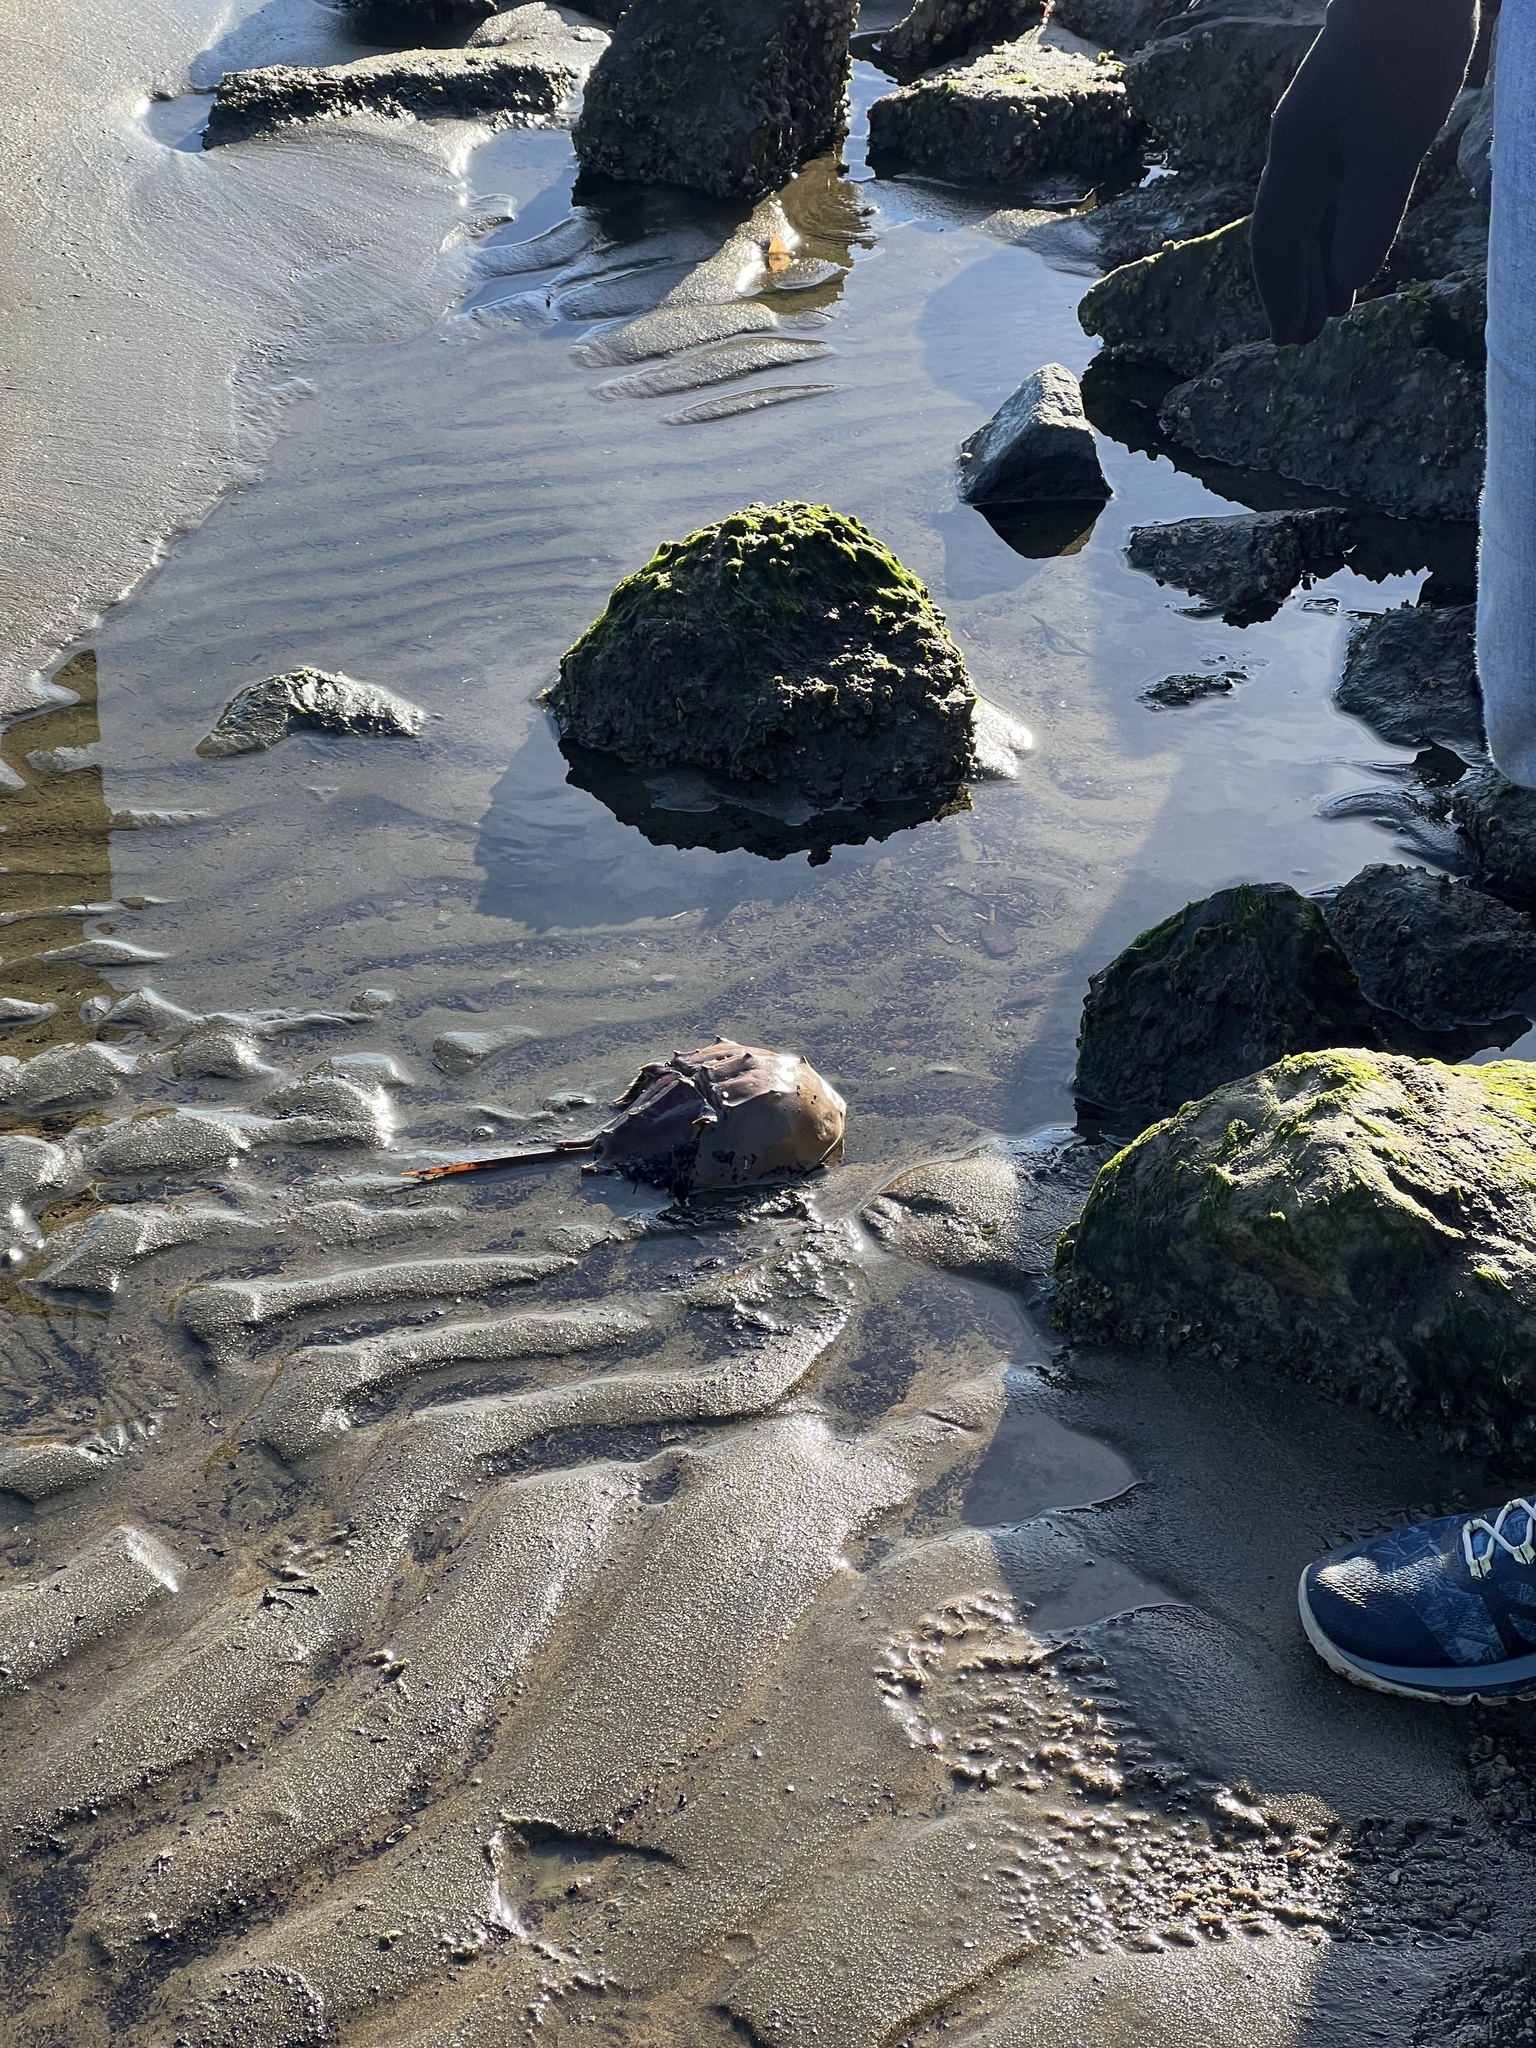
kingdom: Animalia
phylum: Arthropoda
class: Merostomata
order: Xiphosurida
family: Limulidae
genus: Limulus
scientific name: Limulus polyphemus
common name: Horseshoe crab
